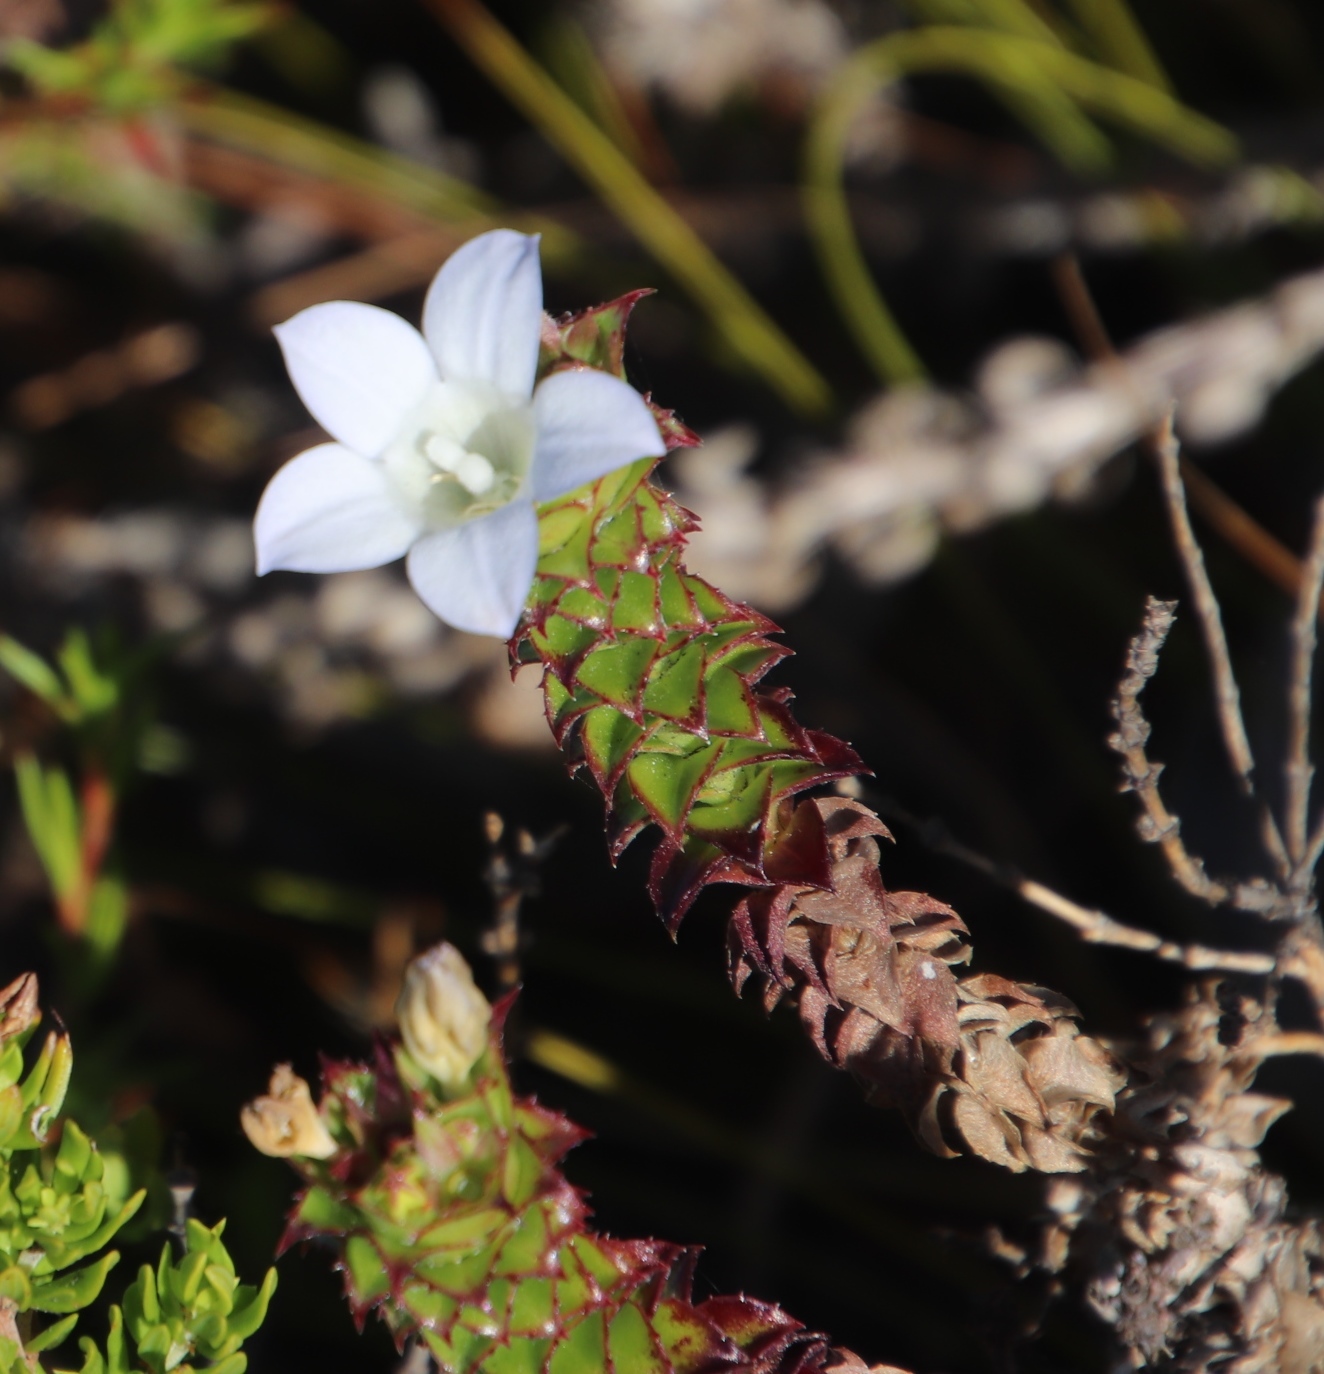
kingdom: Plantae
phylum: Tracheophyta
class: Magnoliopsida
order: Asterales
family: Campanulaceae
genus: Roella
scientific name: Roella amplexicaulis
